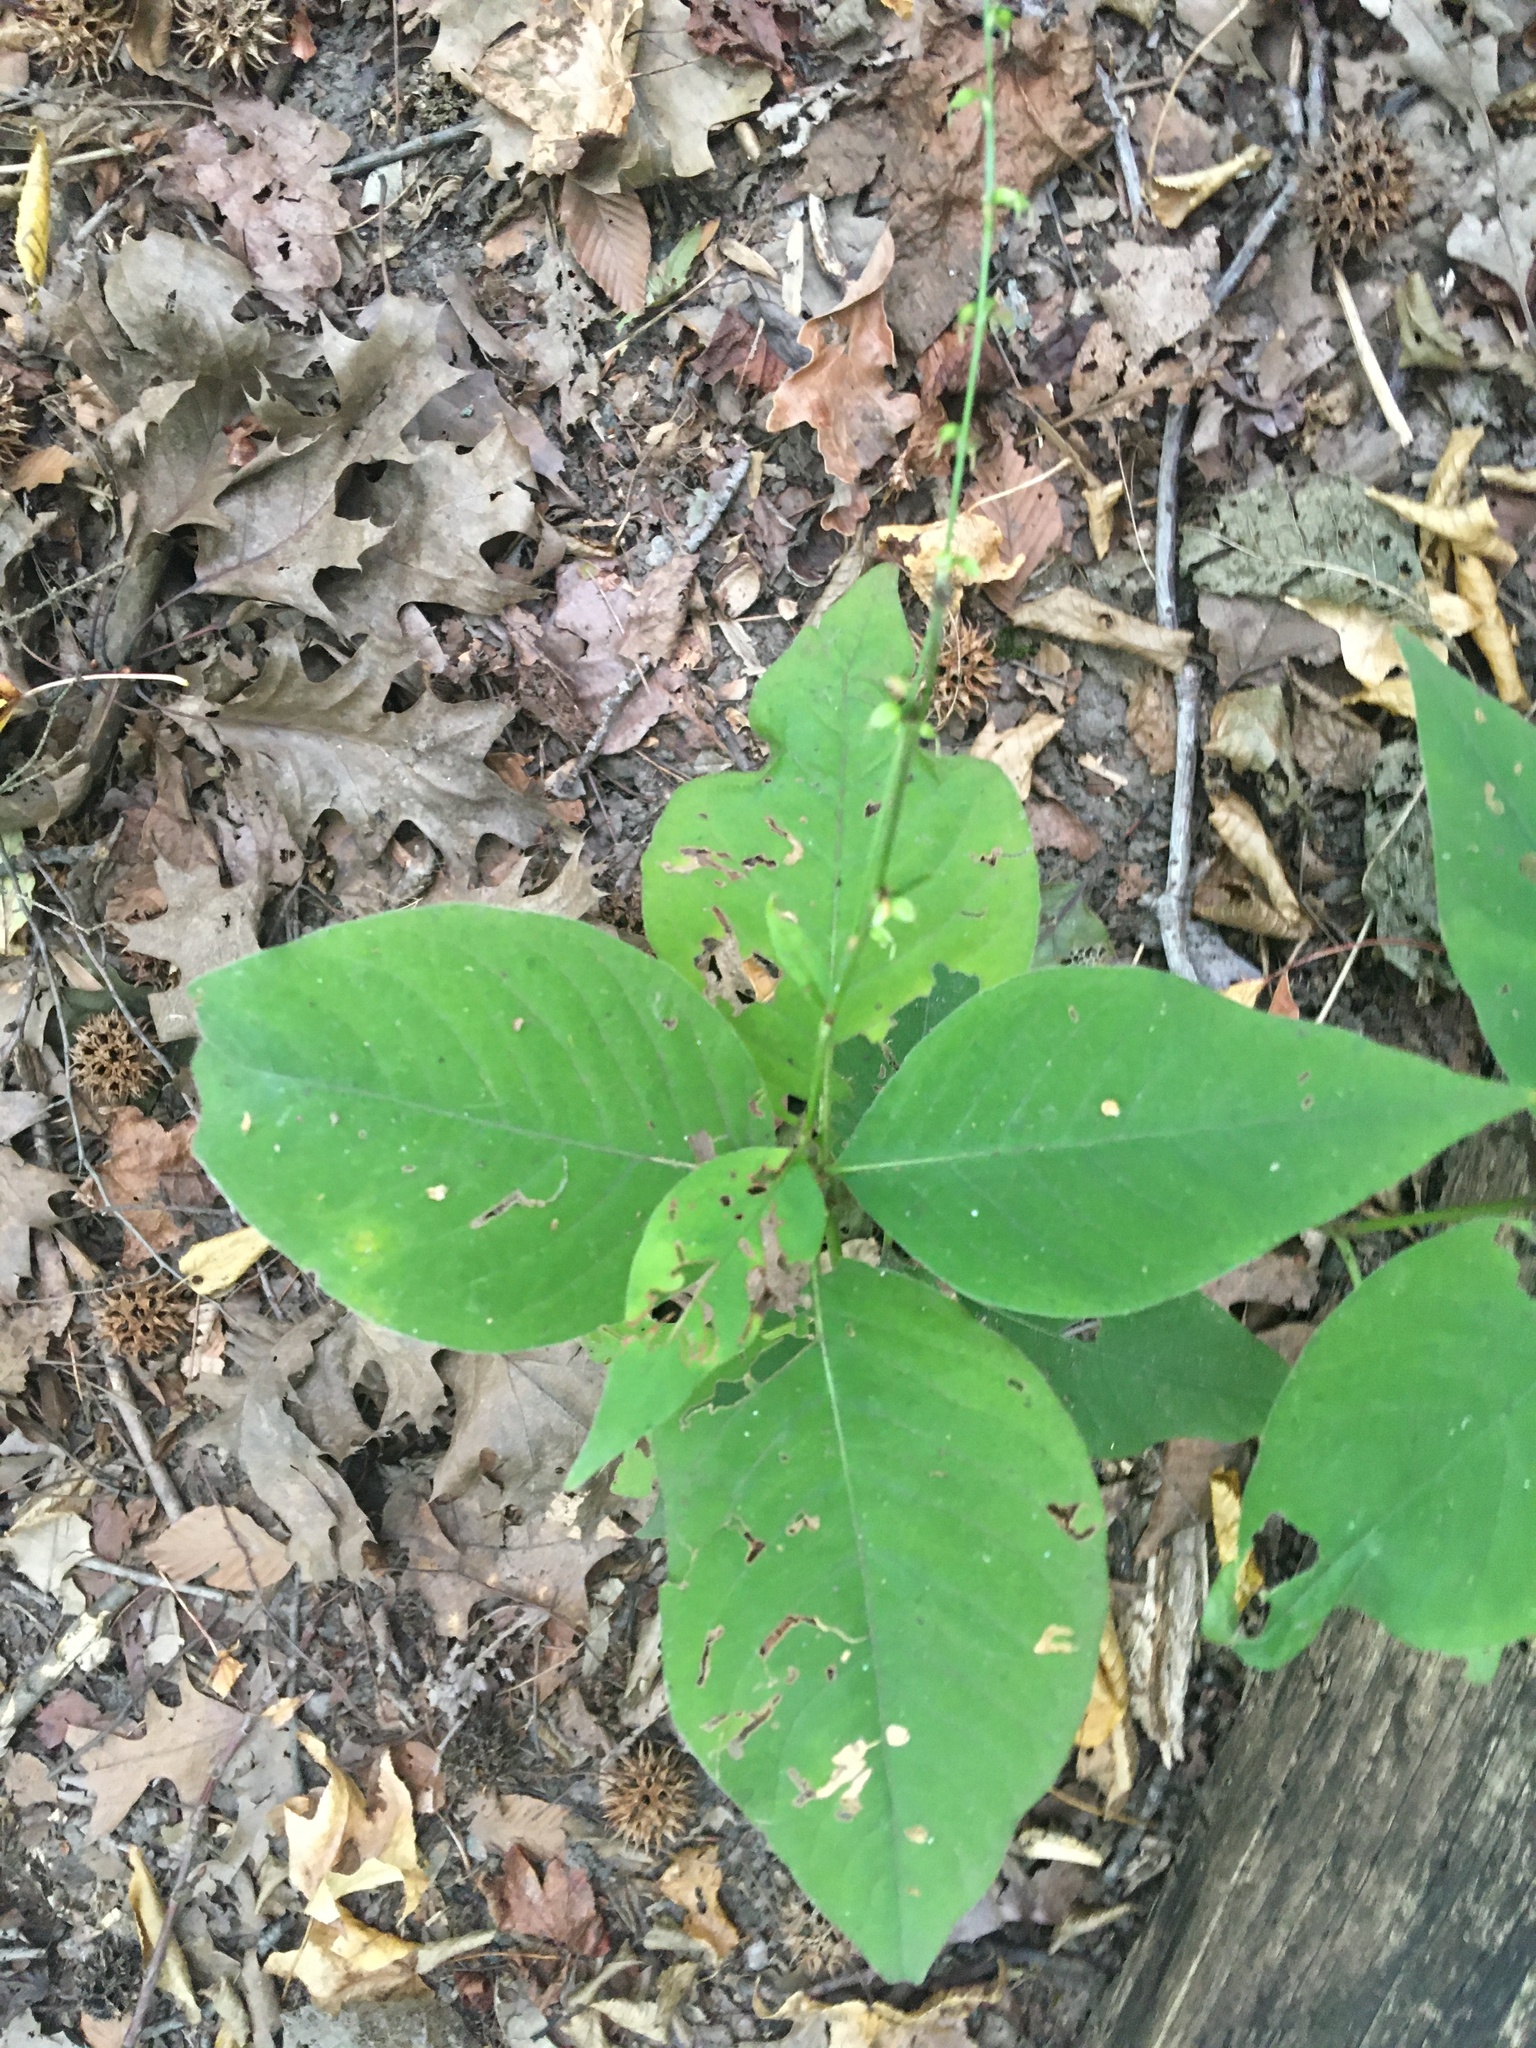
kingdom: Plantae
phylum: Tracheophyta
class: Magnoliopsida
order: Caryophyllales
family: Polygonaceae
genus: Persicaria
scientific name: Persicaria virginiana
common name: Jumpseed
